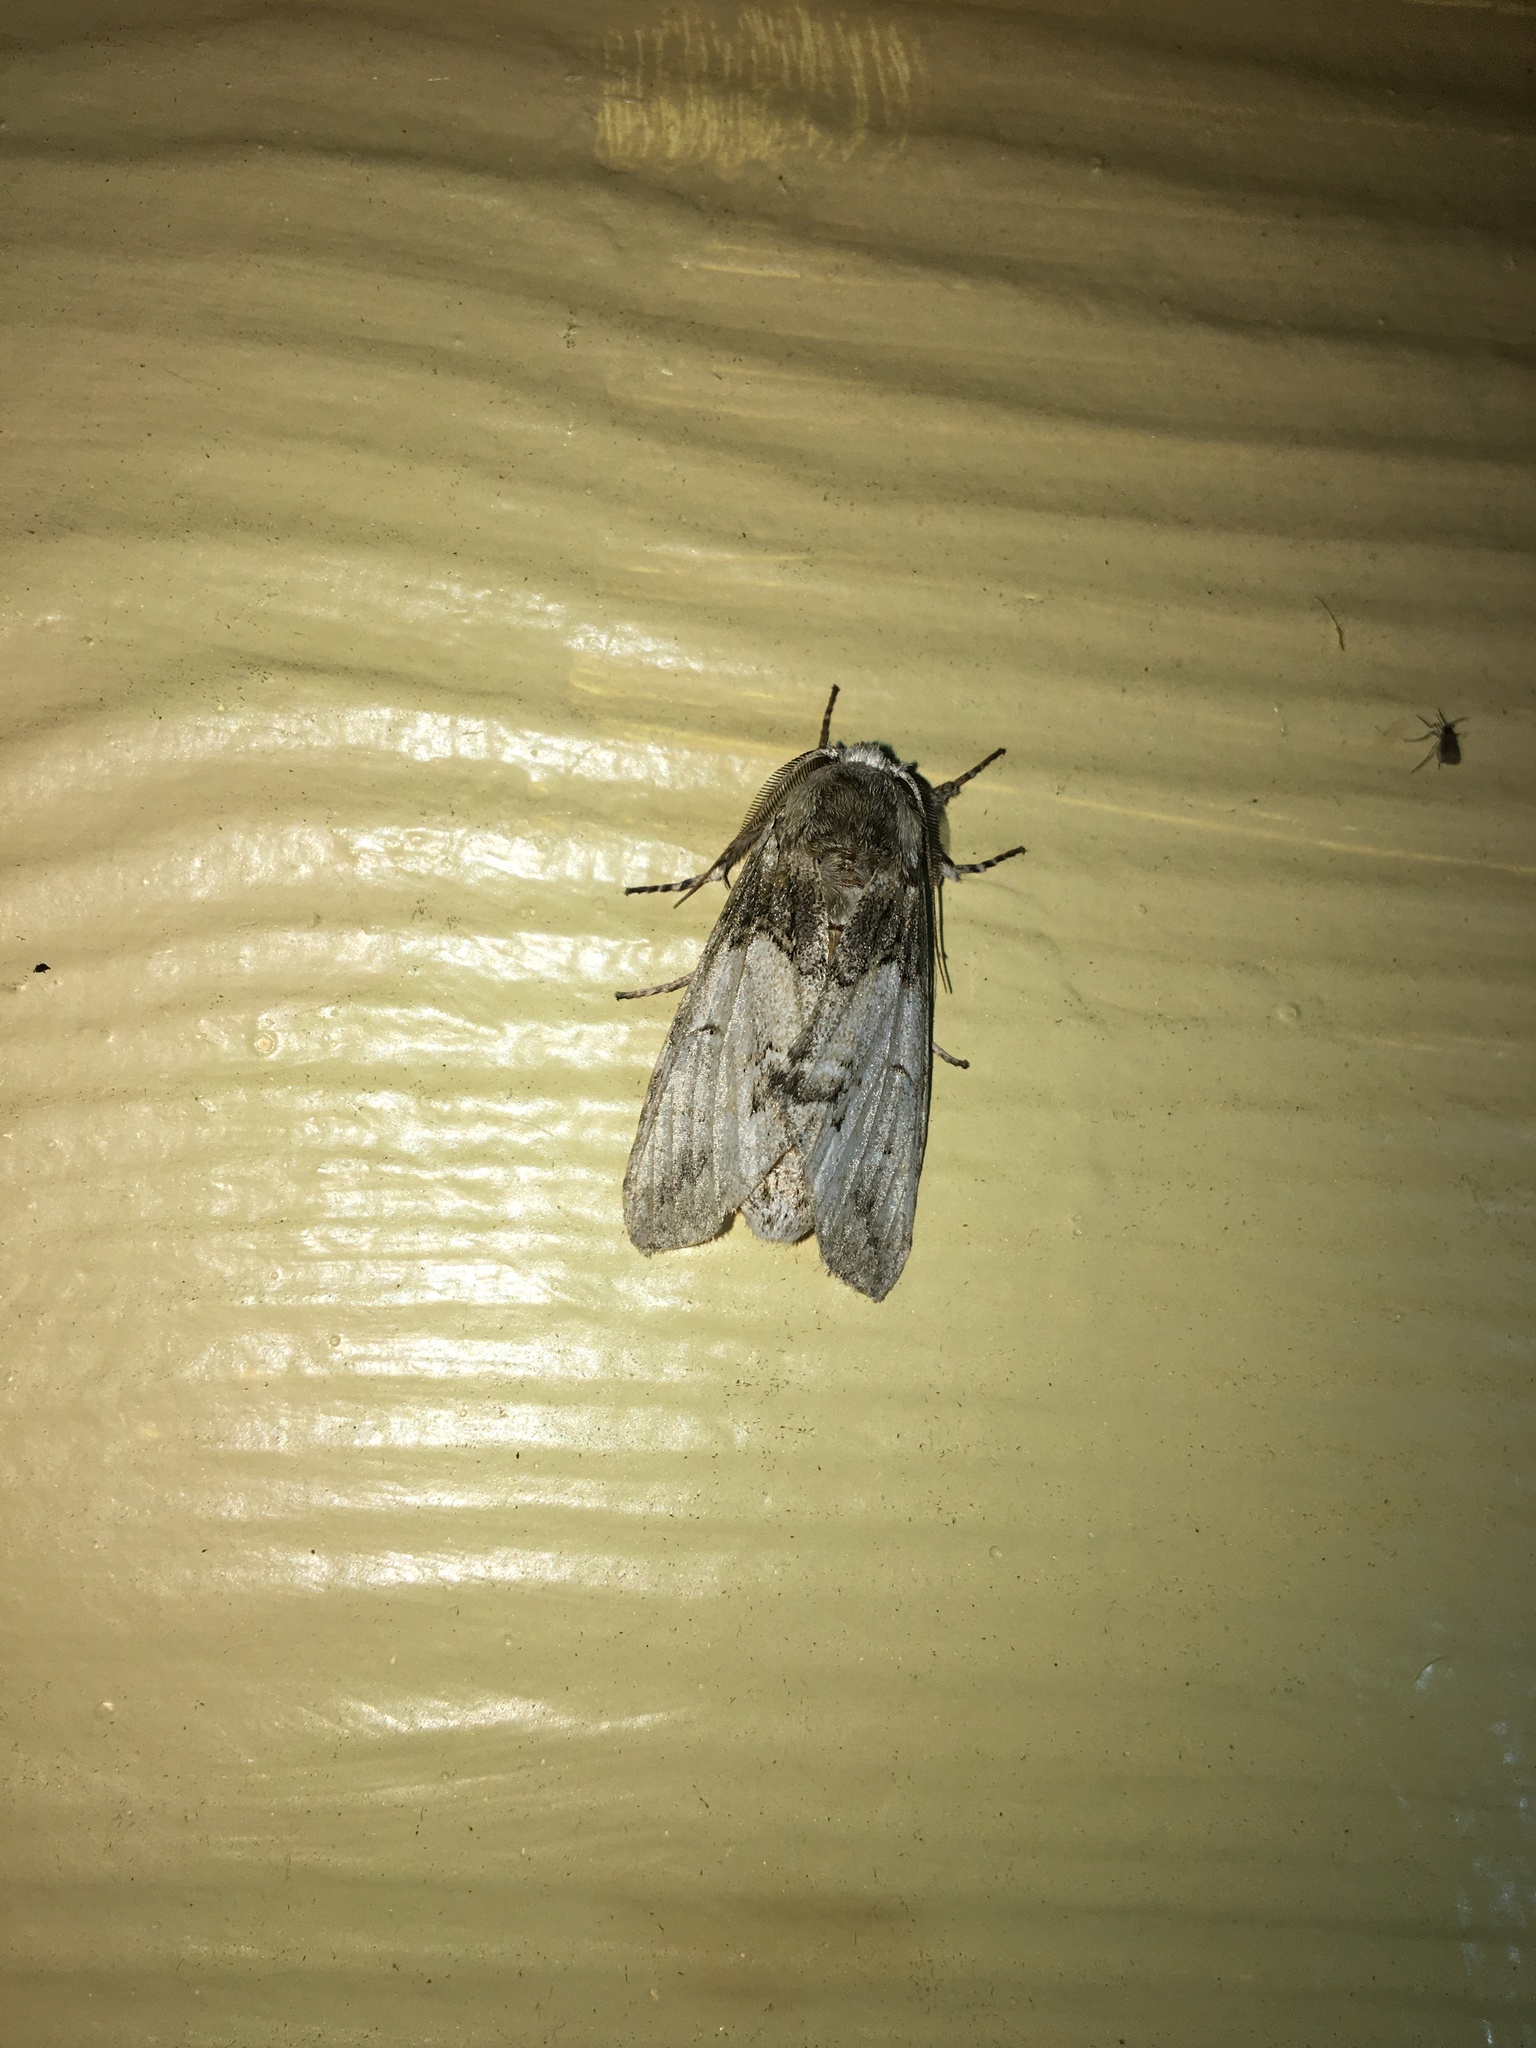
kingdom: Animalia
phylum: Arthropoda
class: Insecta
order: Lepidoptera
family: Notodontidae
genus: Macrurocampa
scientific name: Macrurocampa marthesia
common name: Mottled prominent
